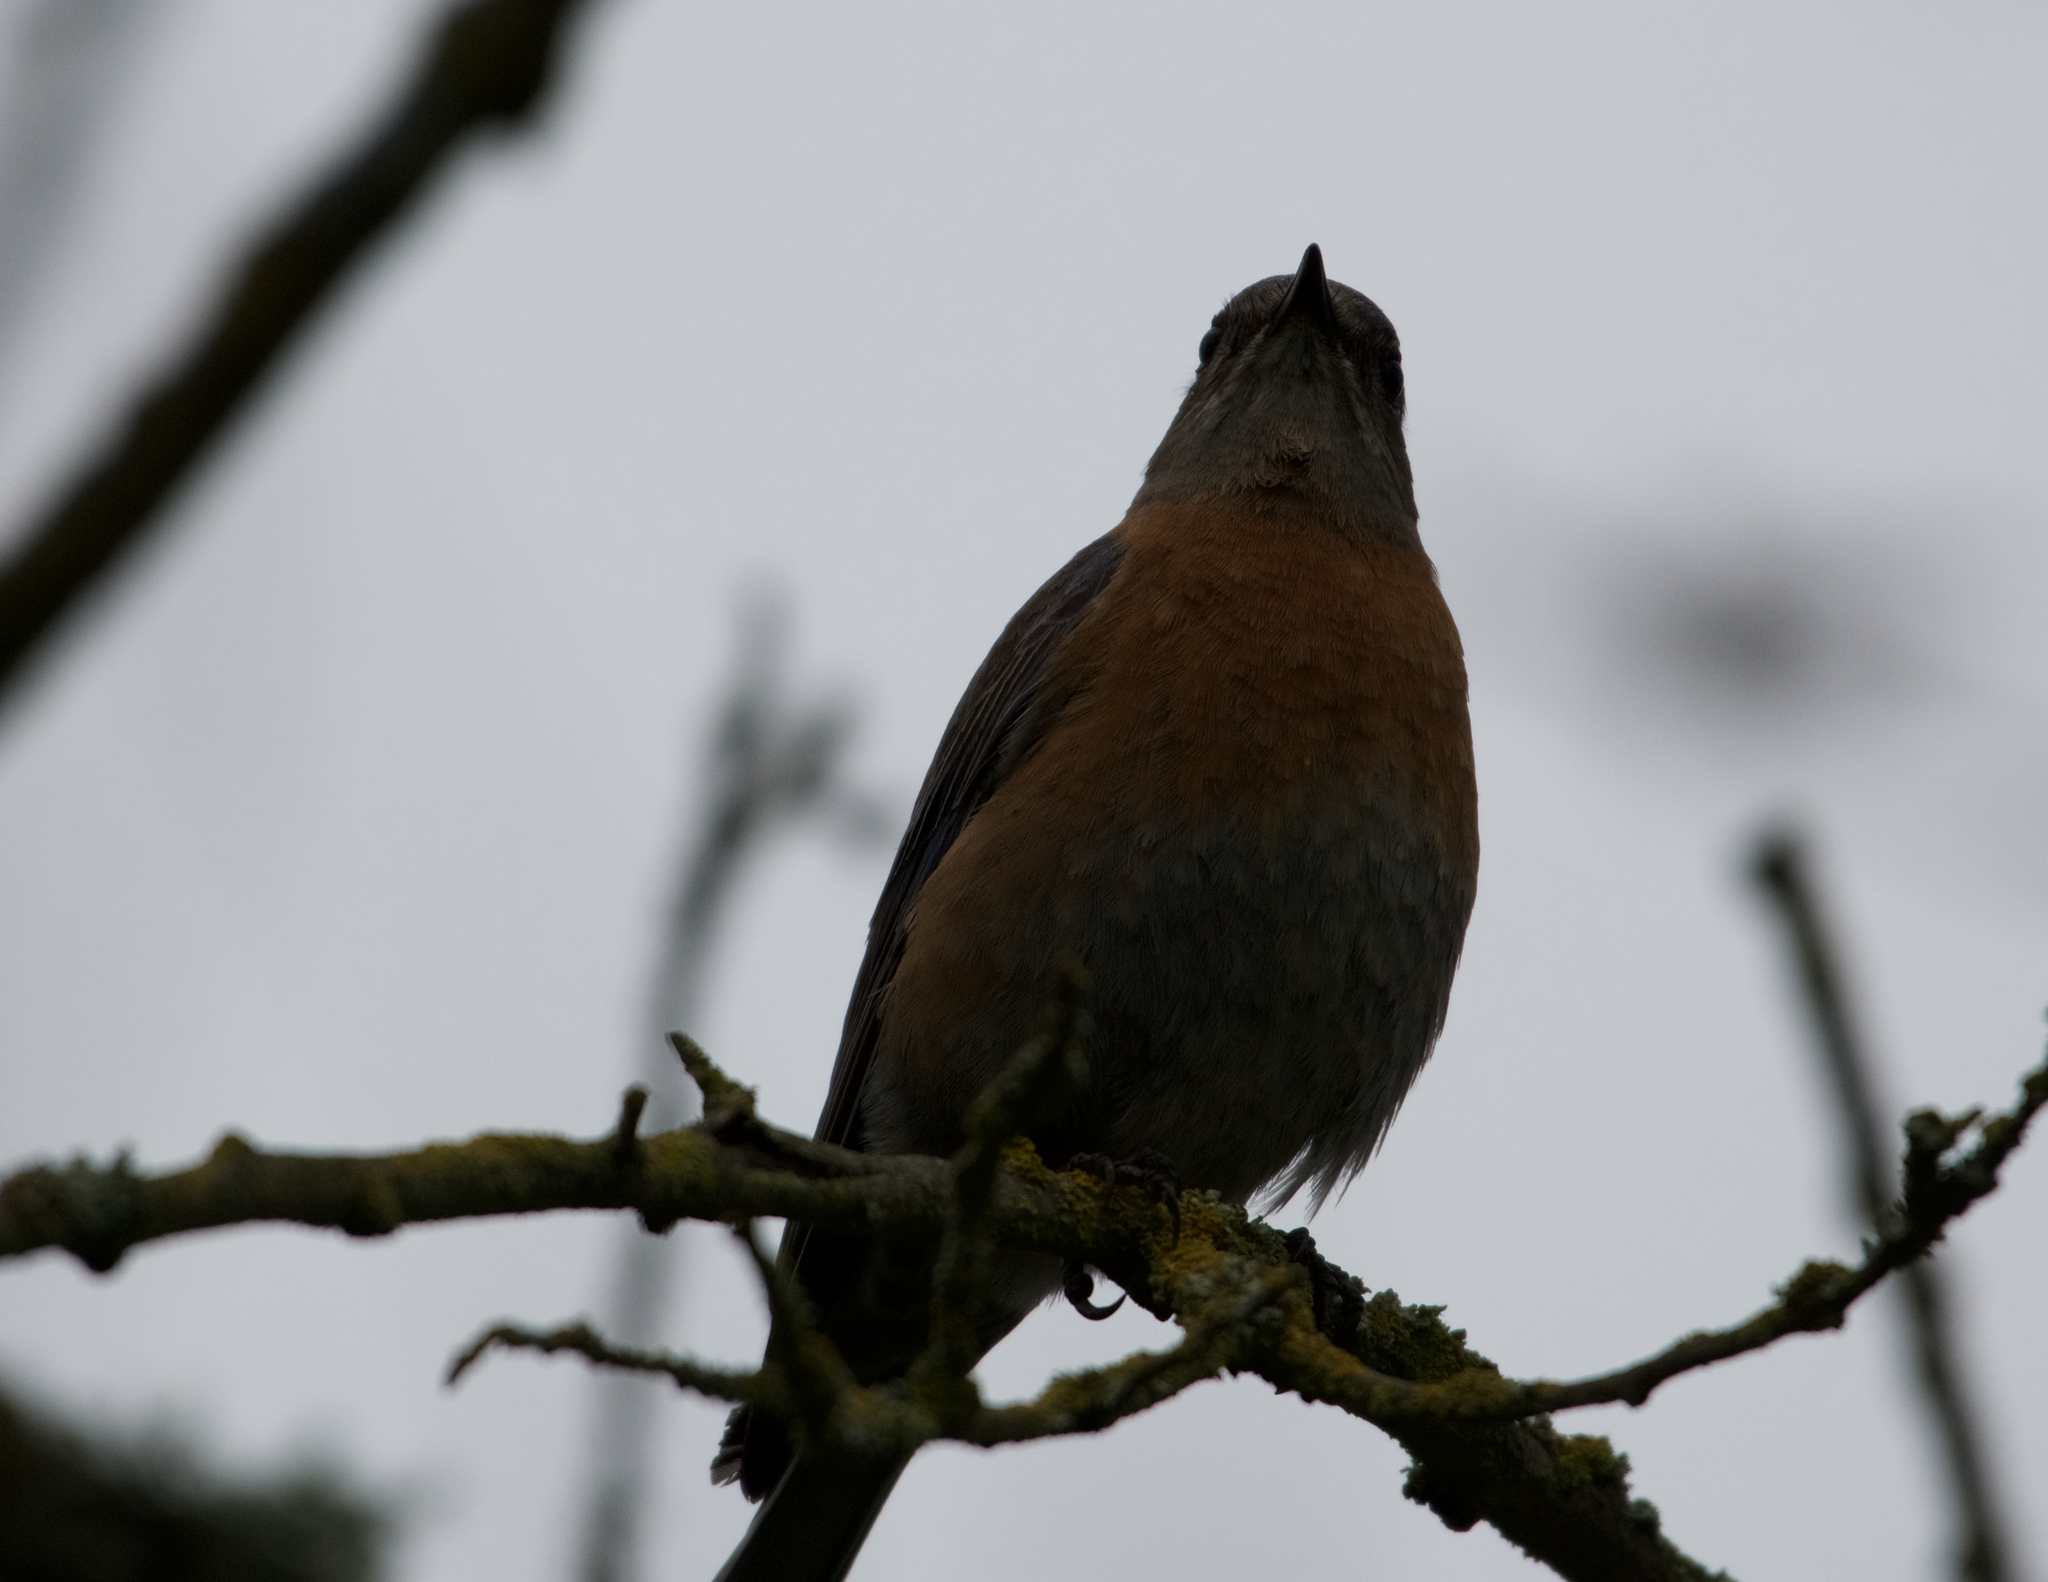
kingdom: Animalia
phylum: Chordata
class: Aves
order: Passeriformes
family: Turdidae
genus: Sialia
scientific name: Sialia mexicana
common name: Western bluebird
